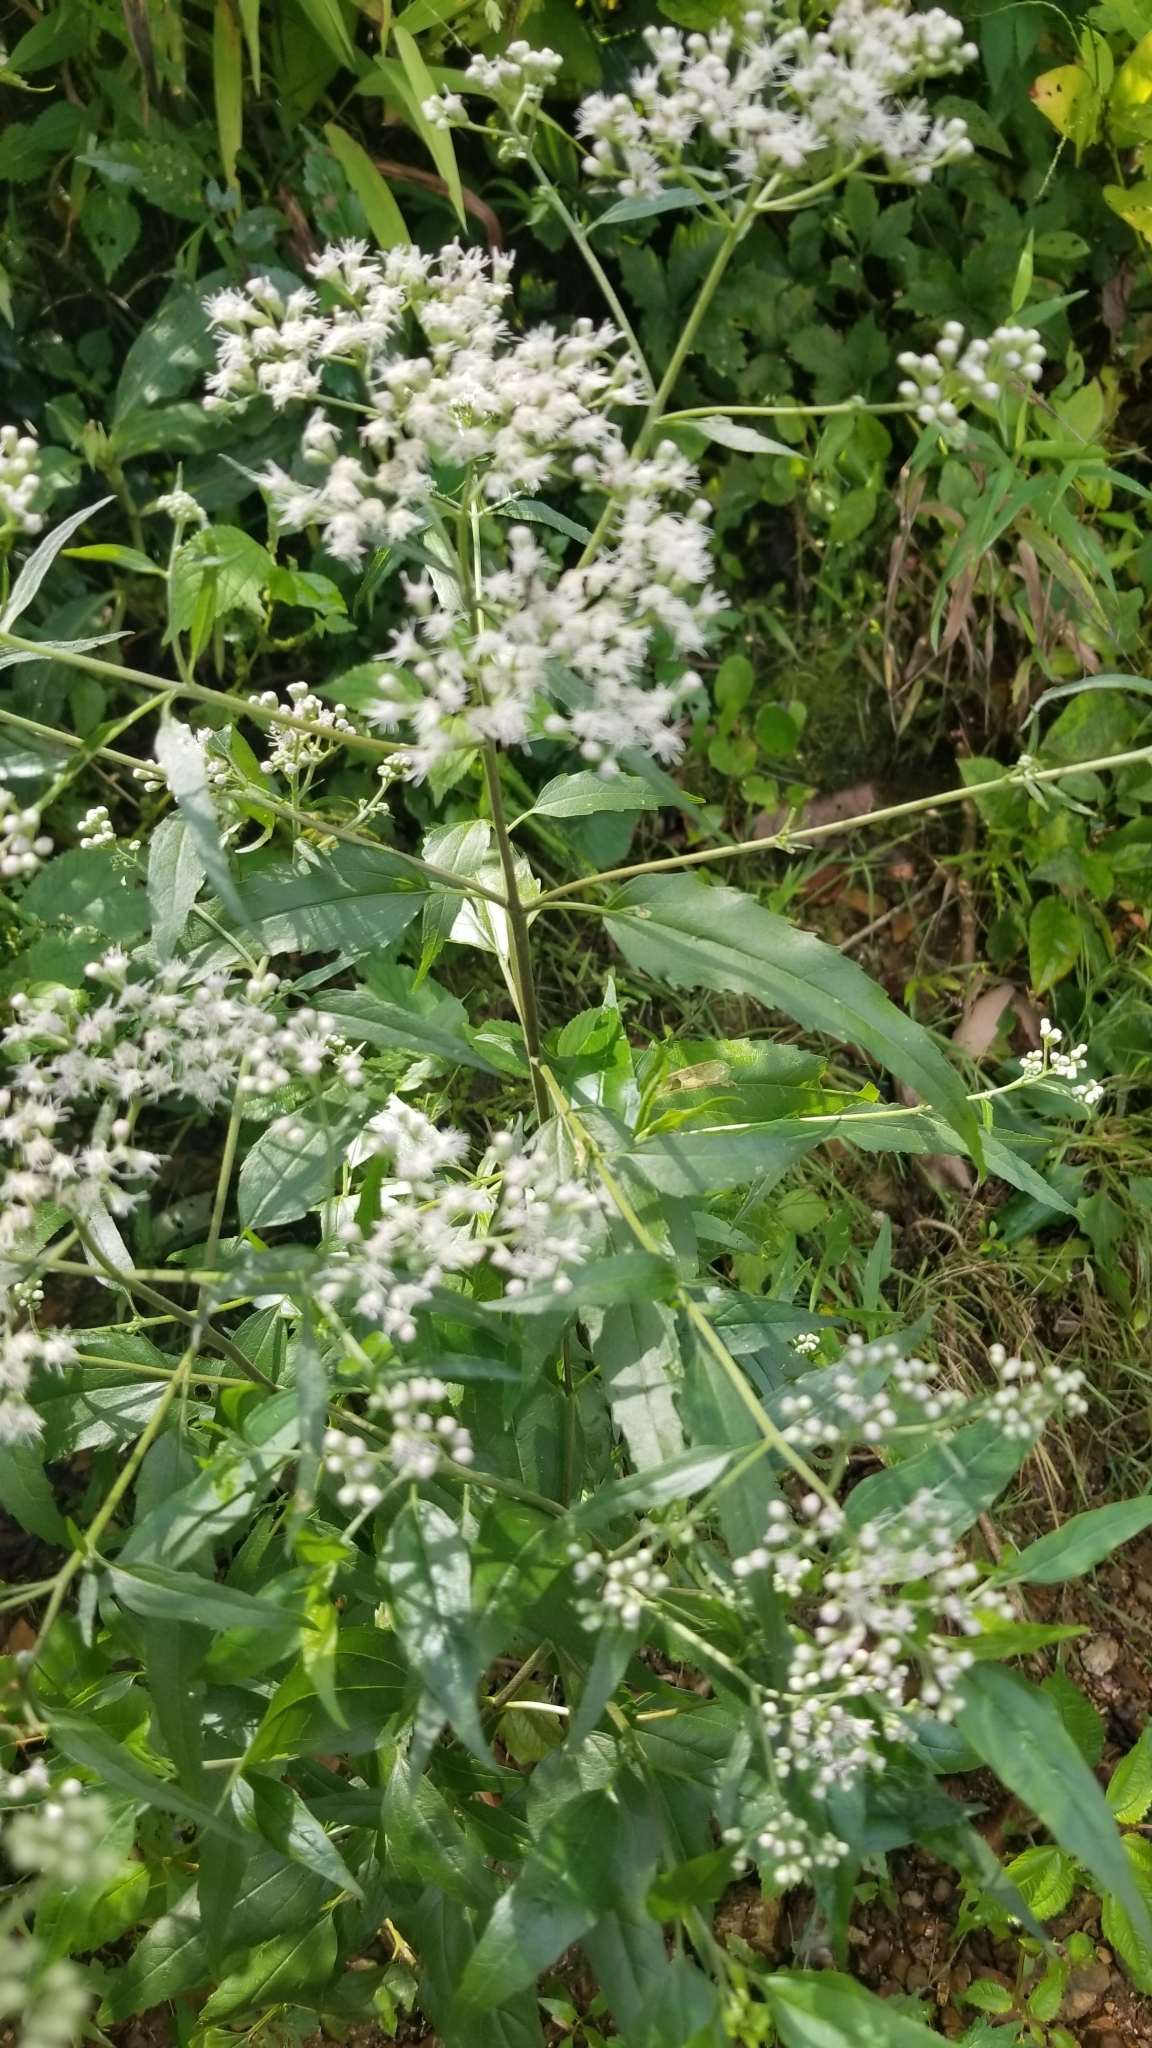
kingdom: Plantae
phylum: Tracheophyta
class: Magnoliopsida
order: Asterales
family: Asteraceae
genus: Eupatorium
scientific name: Eupatorium serotinum
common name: Late boneset
